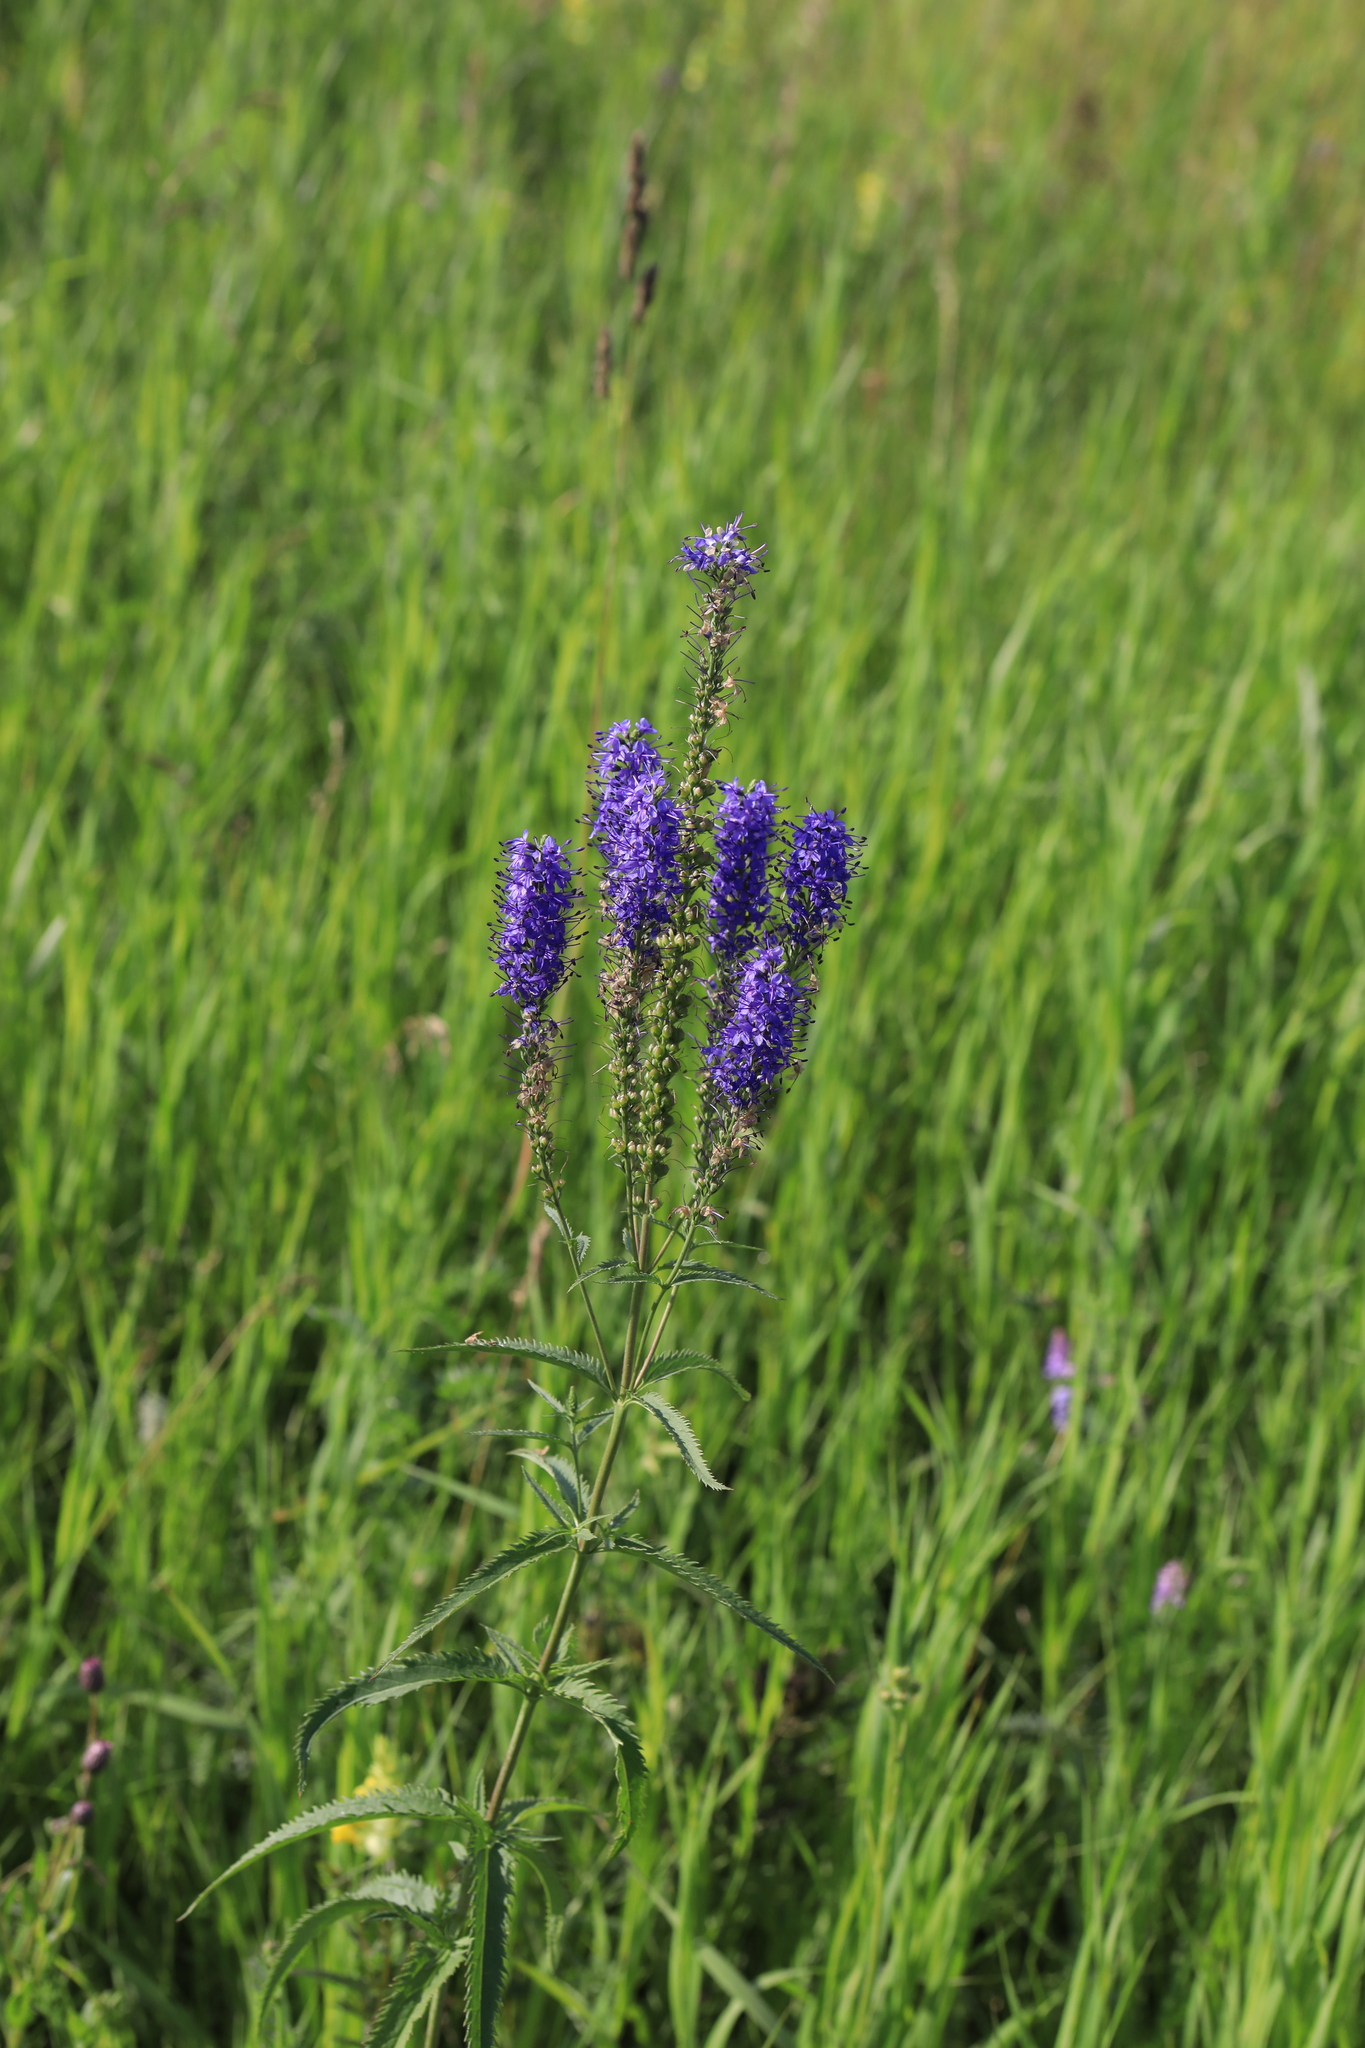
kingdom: Plantae
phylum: Tracheophyta
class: Magnoliopsida
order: Lamiales
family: Plantaginaceae
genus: Veronica
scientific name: Veronica longifolia
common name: Garden speedwell
